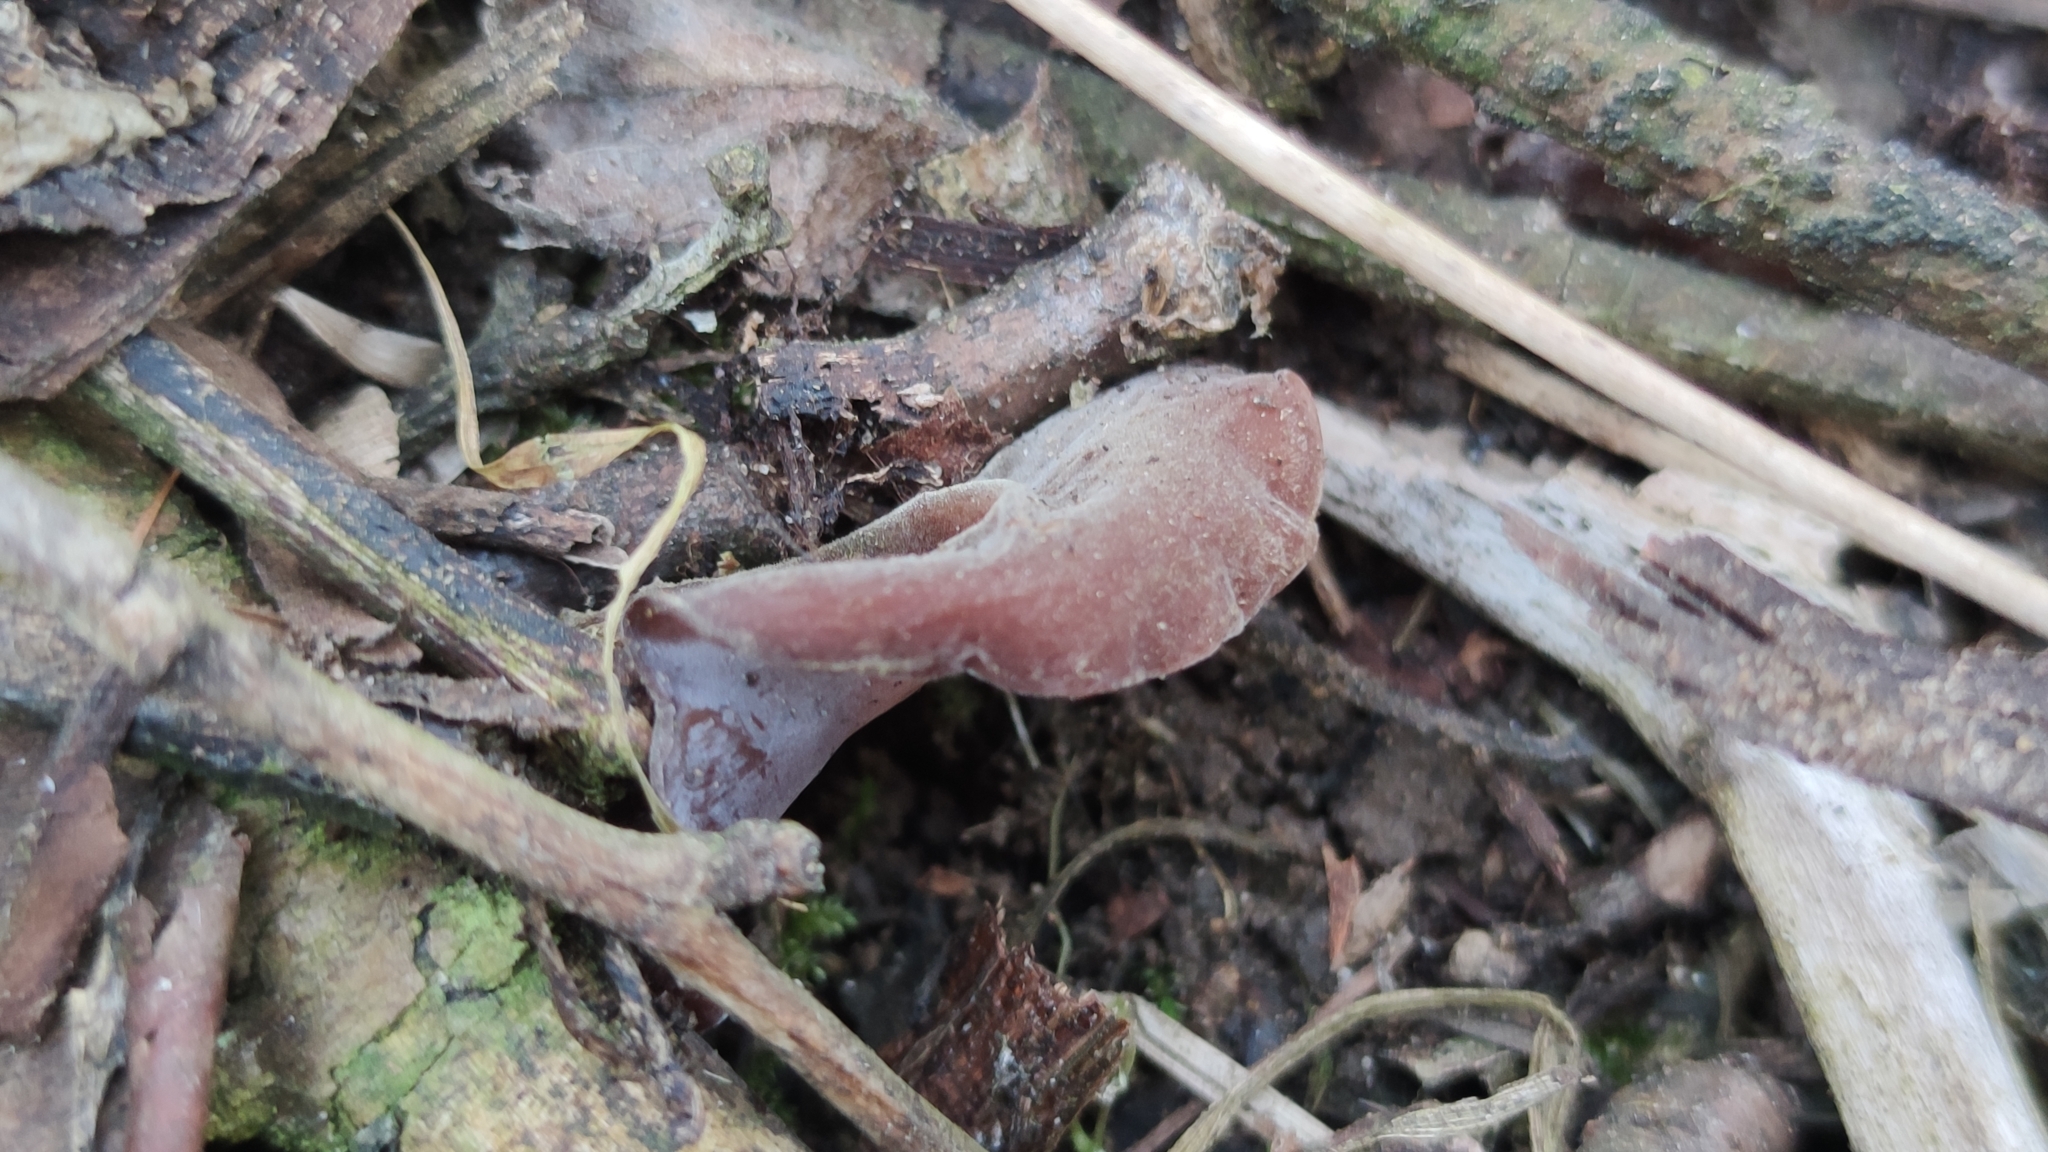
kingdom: Fungi
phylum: Basidiomycota
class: Agaricomycetes
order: Auriculariales
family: Auriculariaceae
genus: Auricularia
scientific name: Auricularia auricula-judae
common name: Jelly ear
